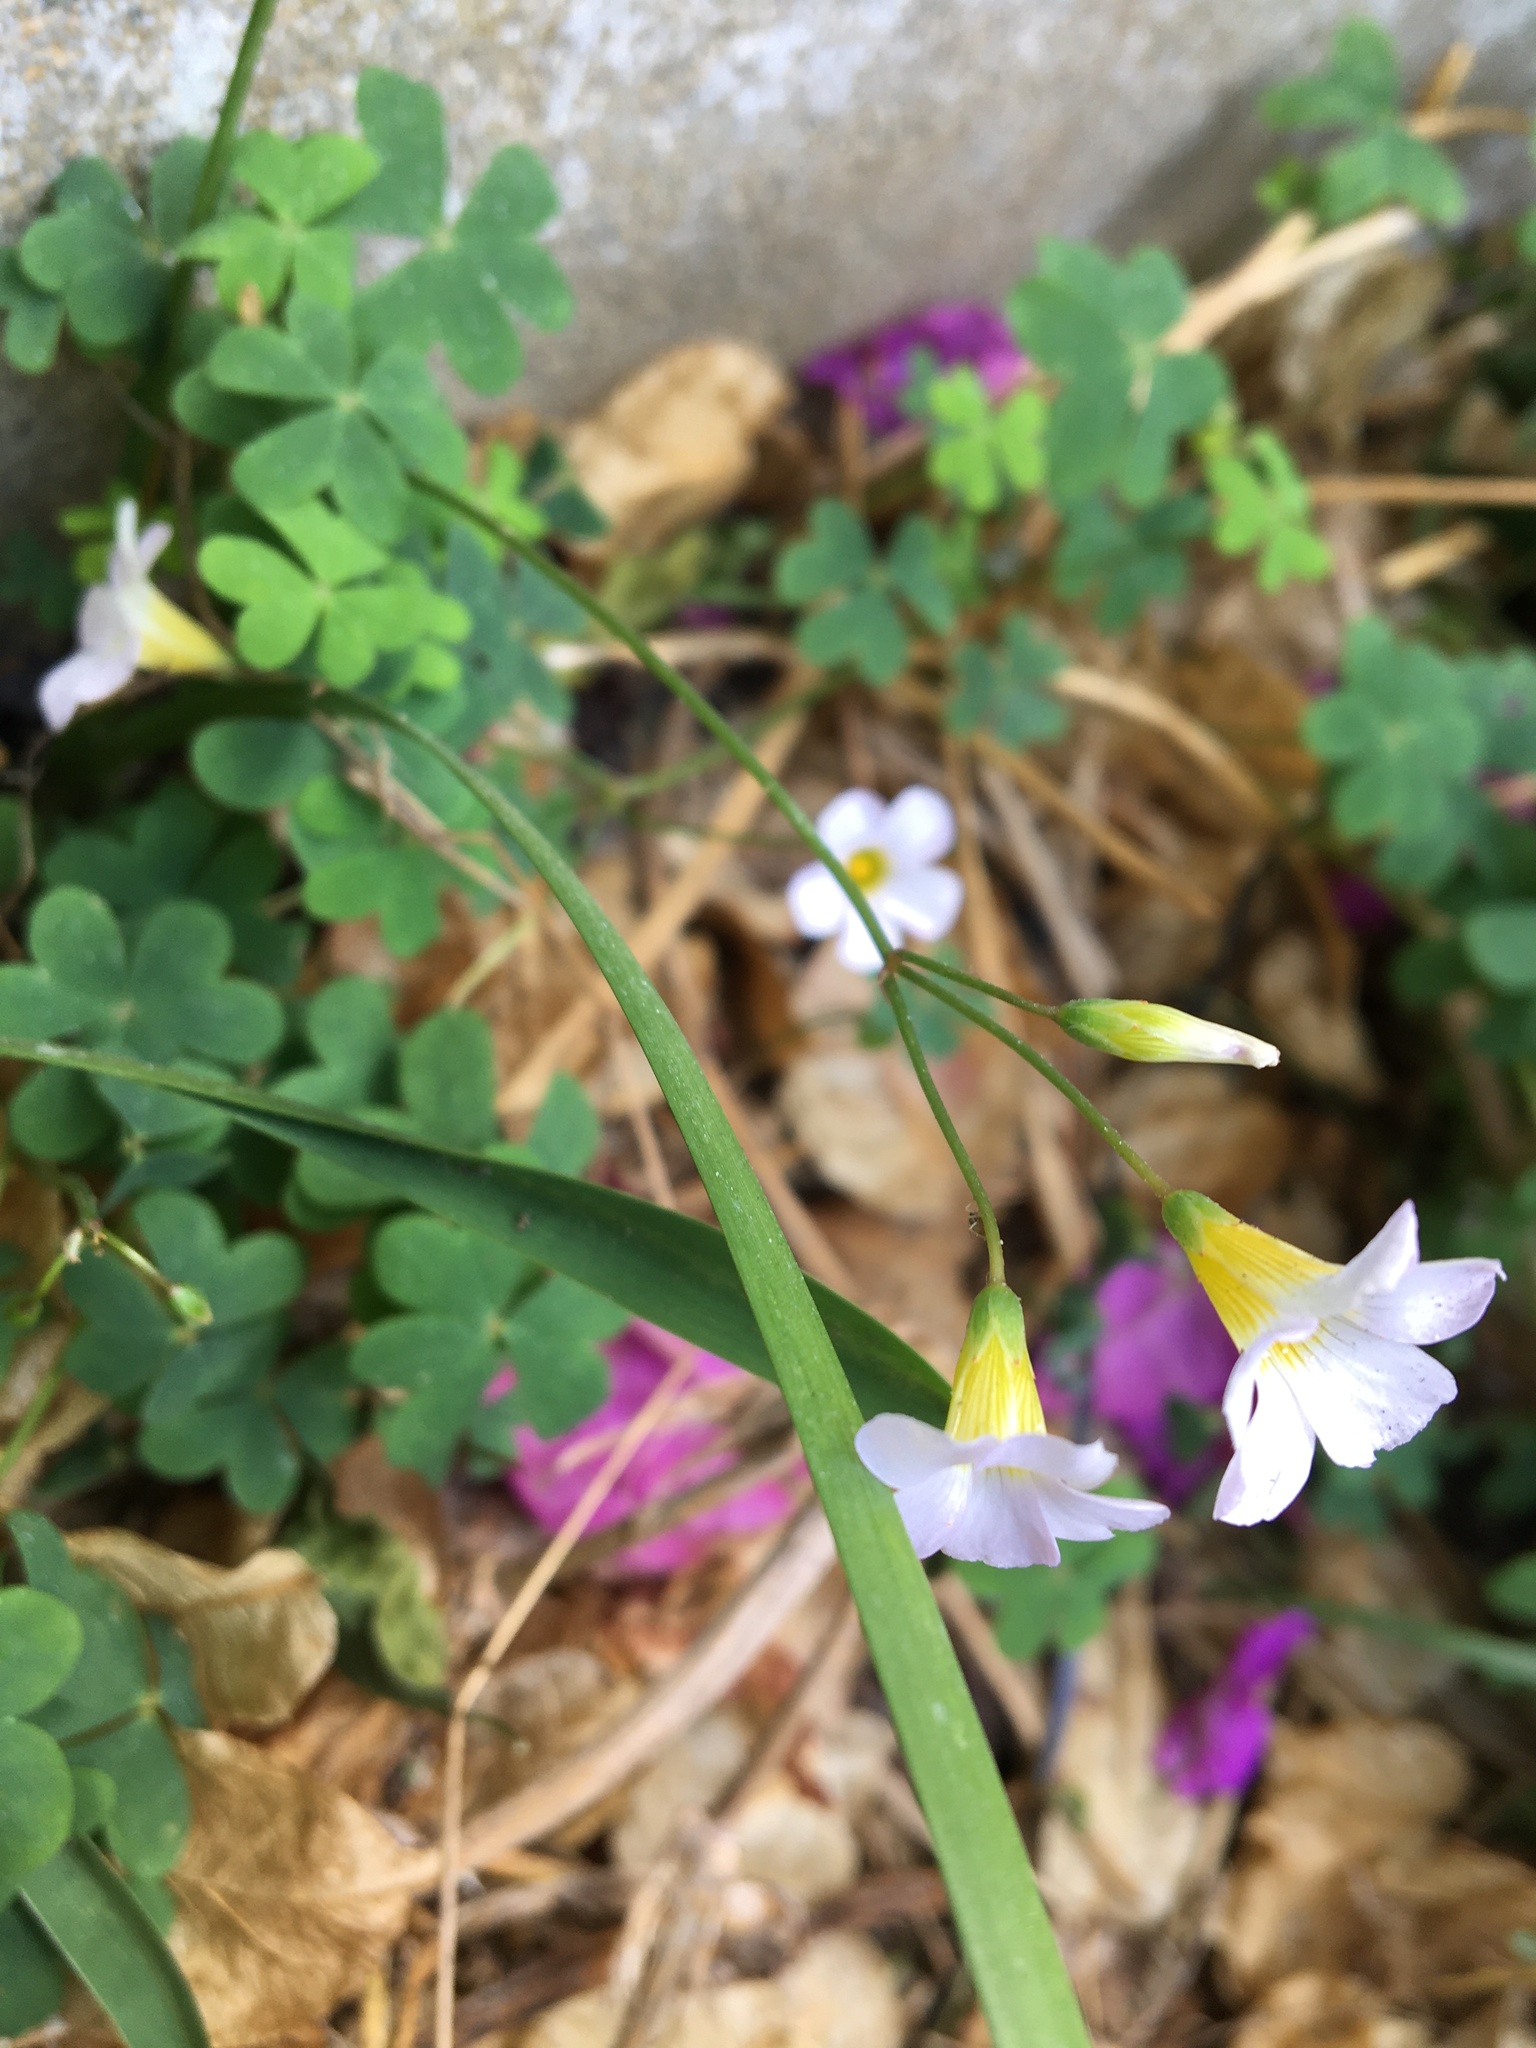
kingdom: Plantae
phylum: Tracheophyta
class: Magnoliopsida
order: Oxalidales
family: Oxalidaceae
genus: Oxalis
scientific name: Oxalis caprina
